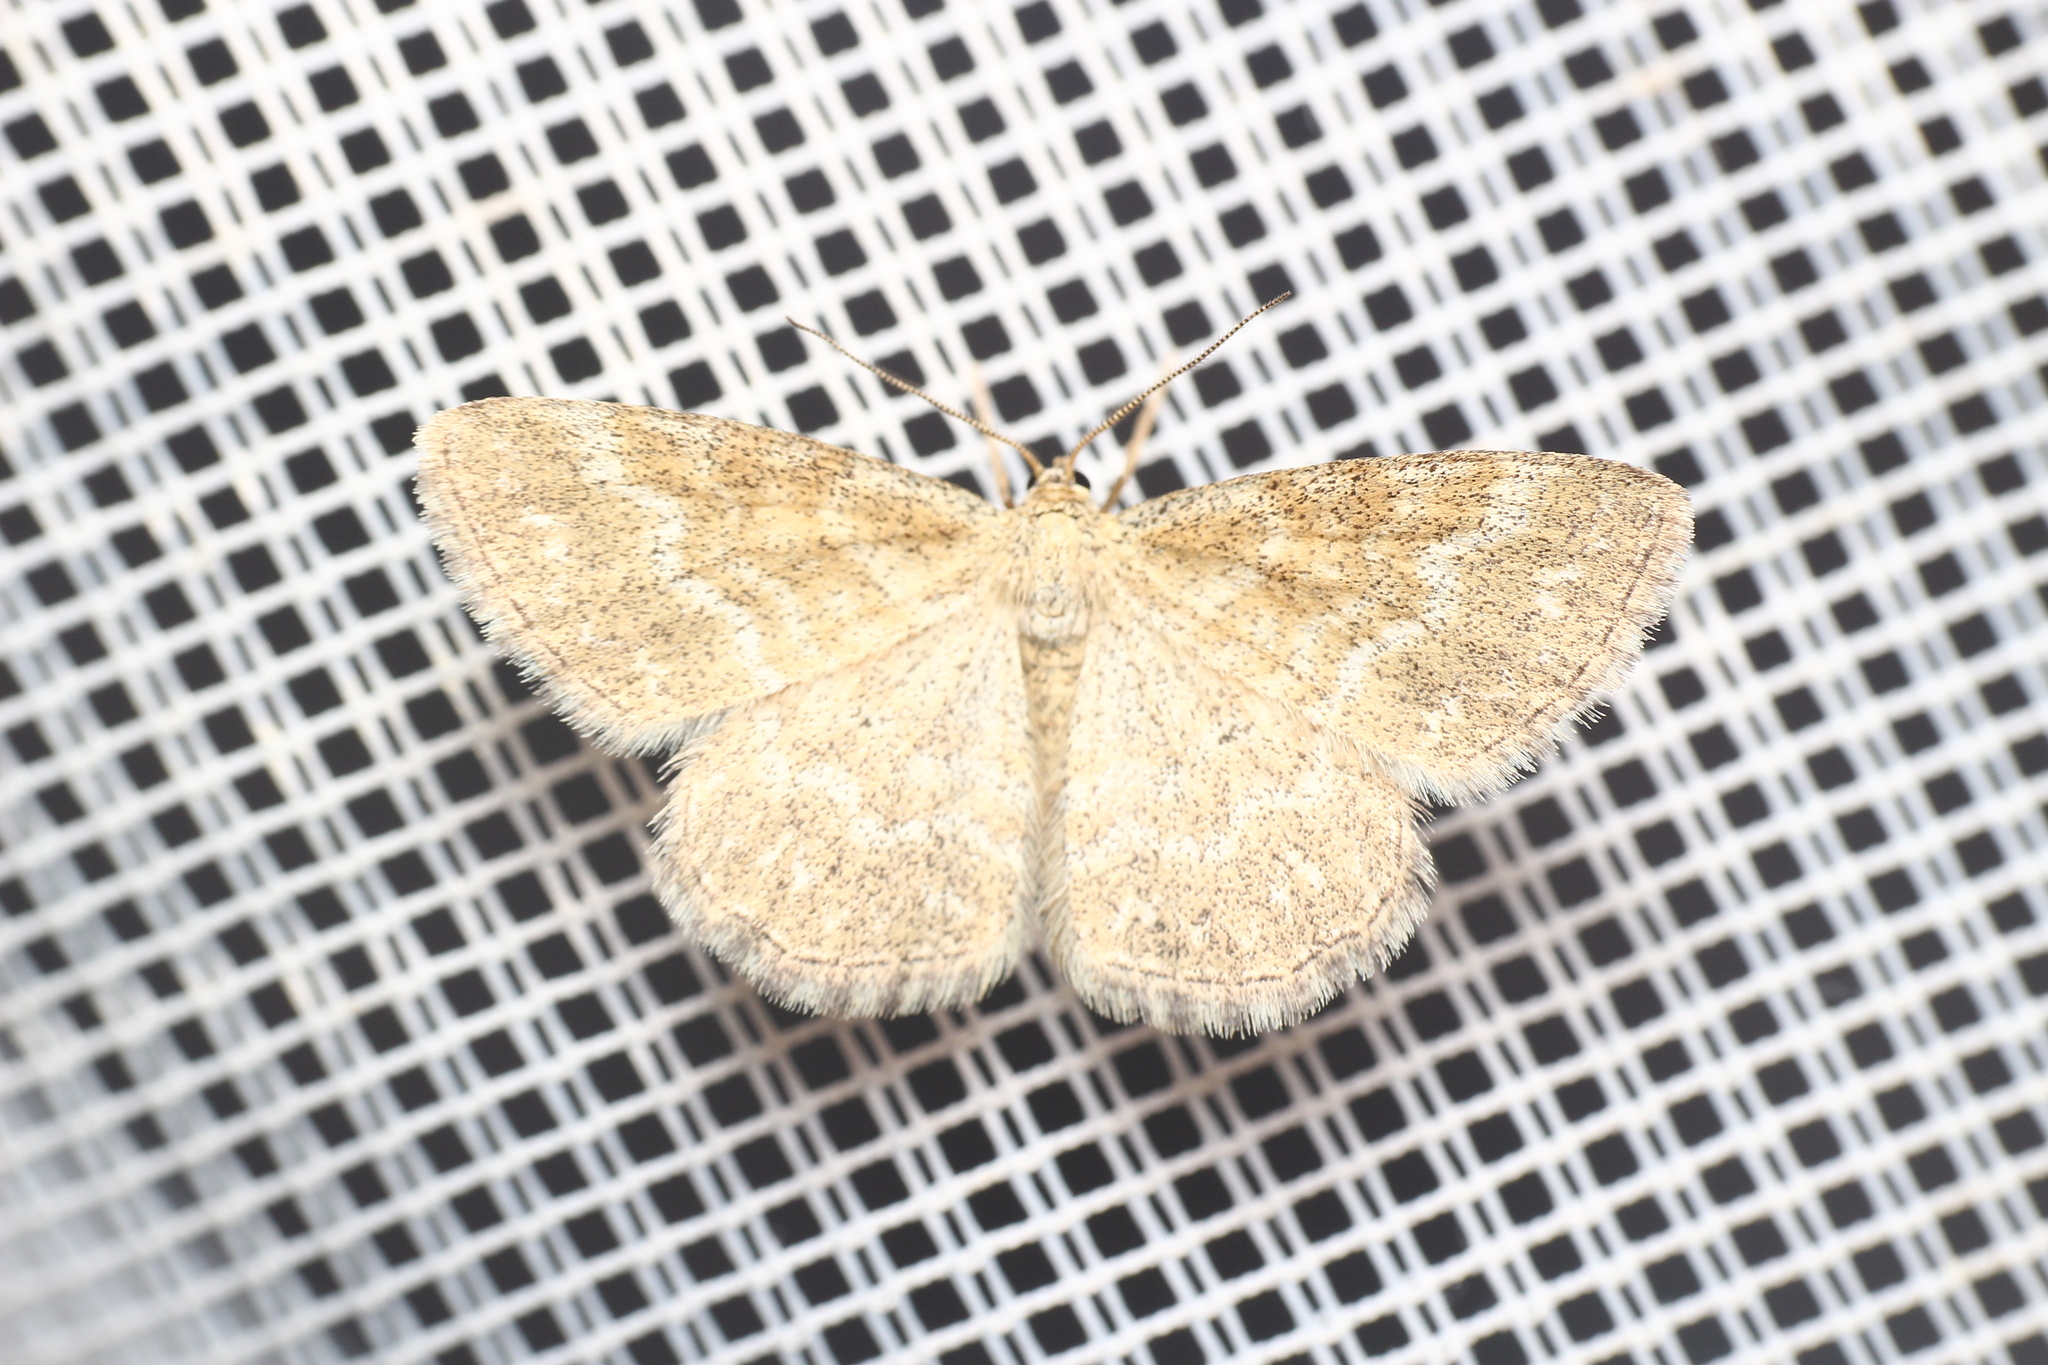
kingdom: Animalia
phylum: Arthropoda
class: Insecta
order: Lepidoptera
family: Geometridae
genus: Scopula
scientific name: Scopula immorata
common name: Lewes wave
